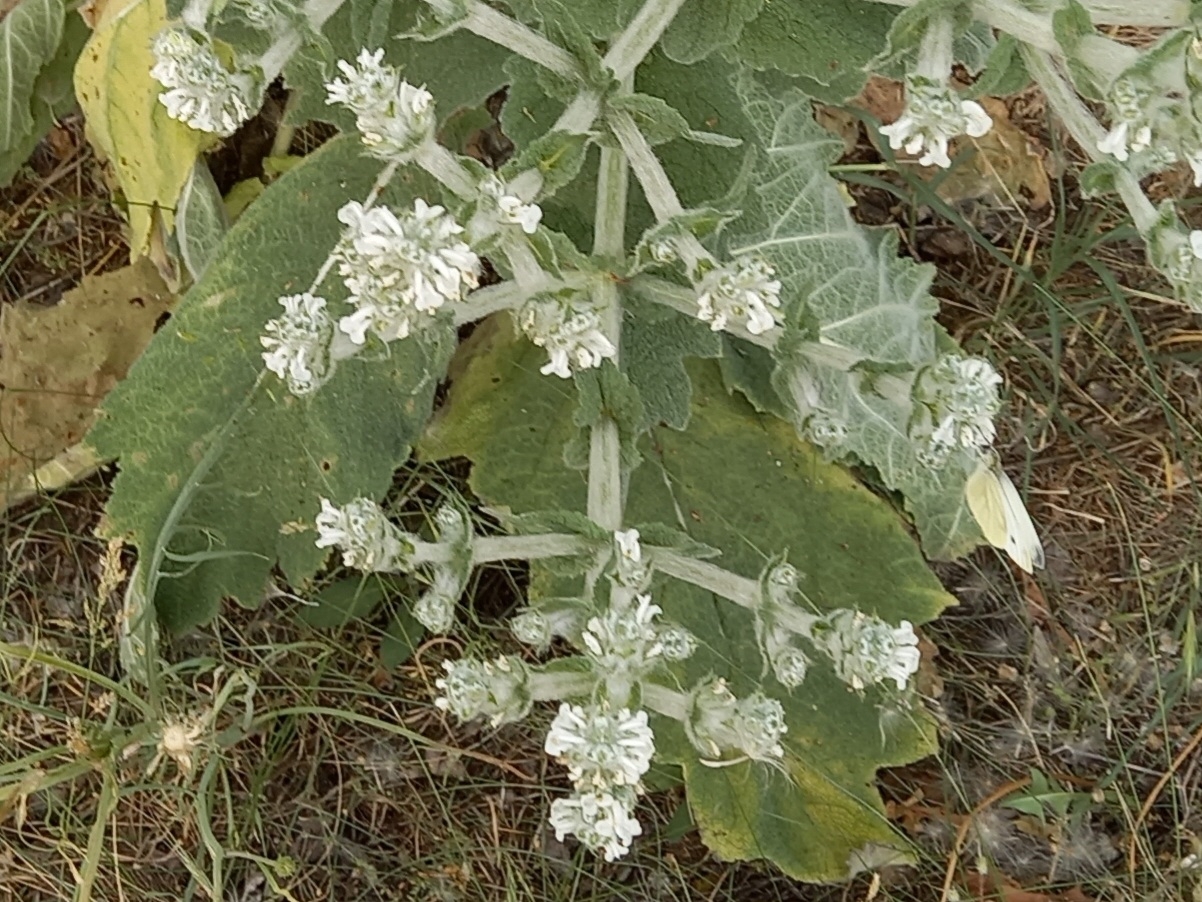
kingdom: Plantae
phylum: Tracheophyta
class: Magnoliopsida
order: Lamiales
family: Lamiaceae
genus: Salvia
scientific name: Salvia aethiopis
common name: Mediterranean sage
